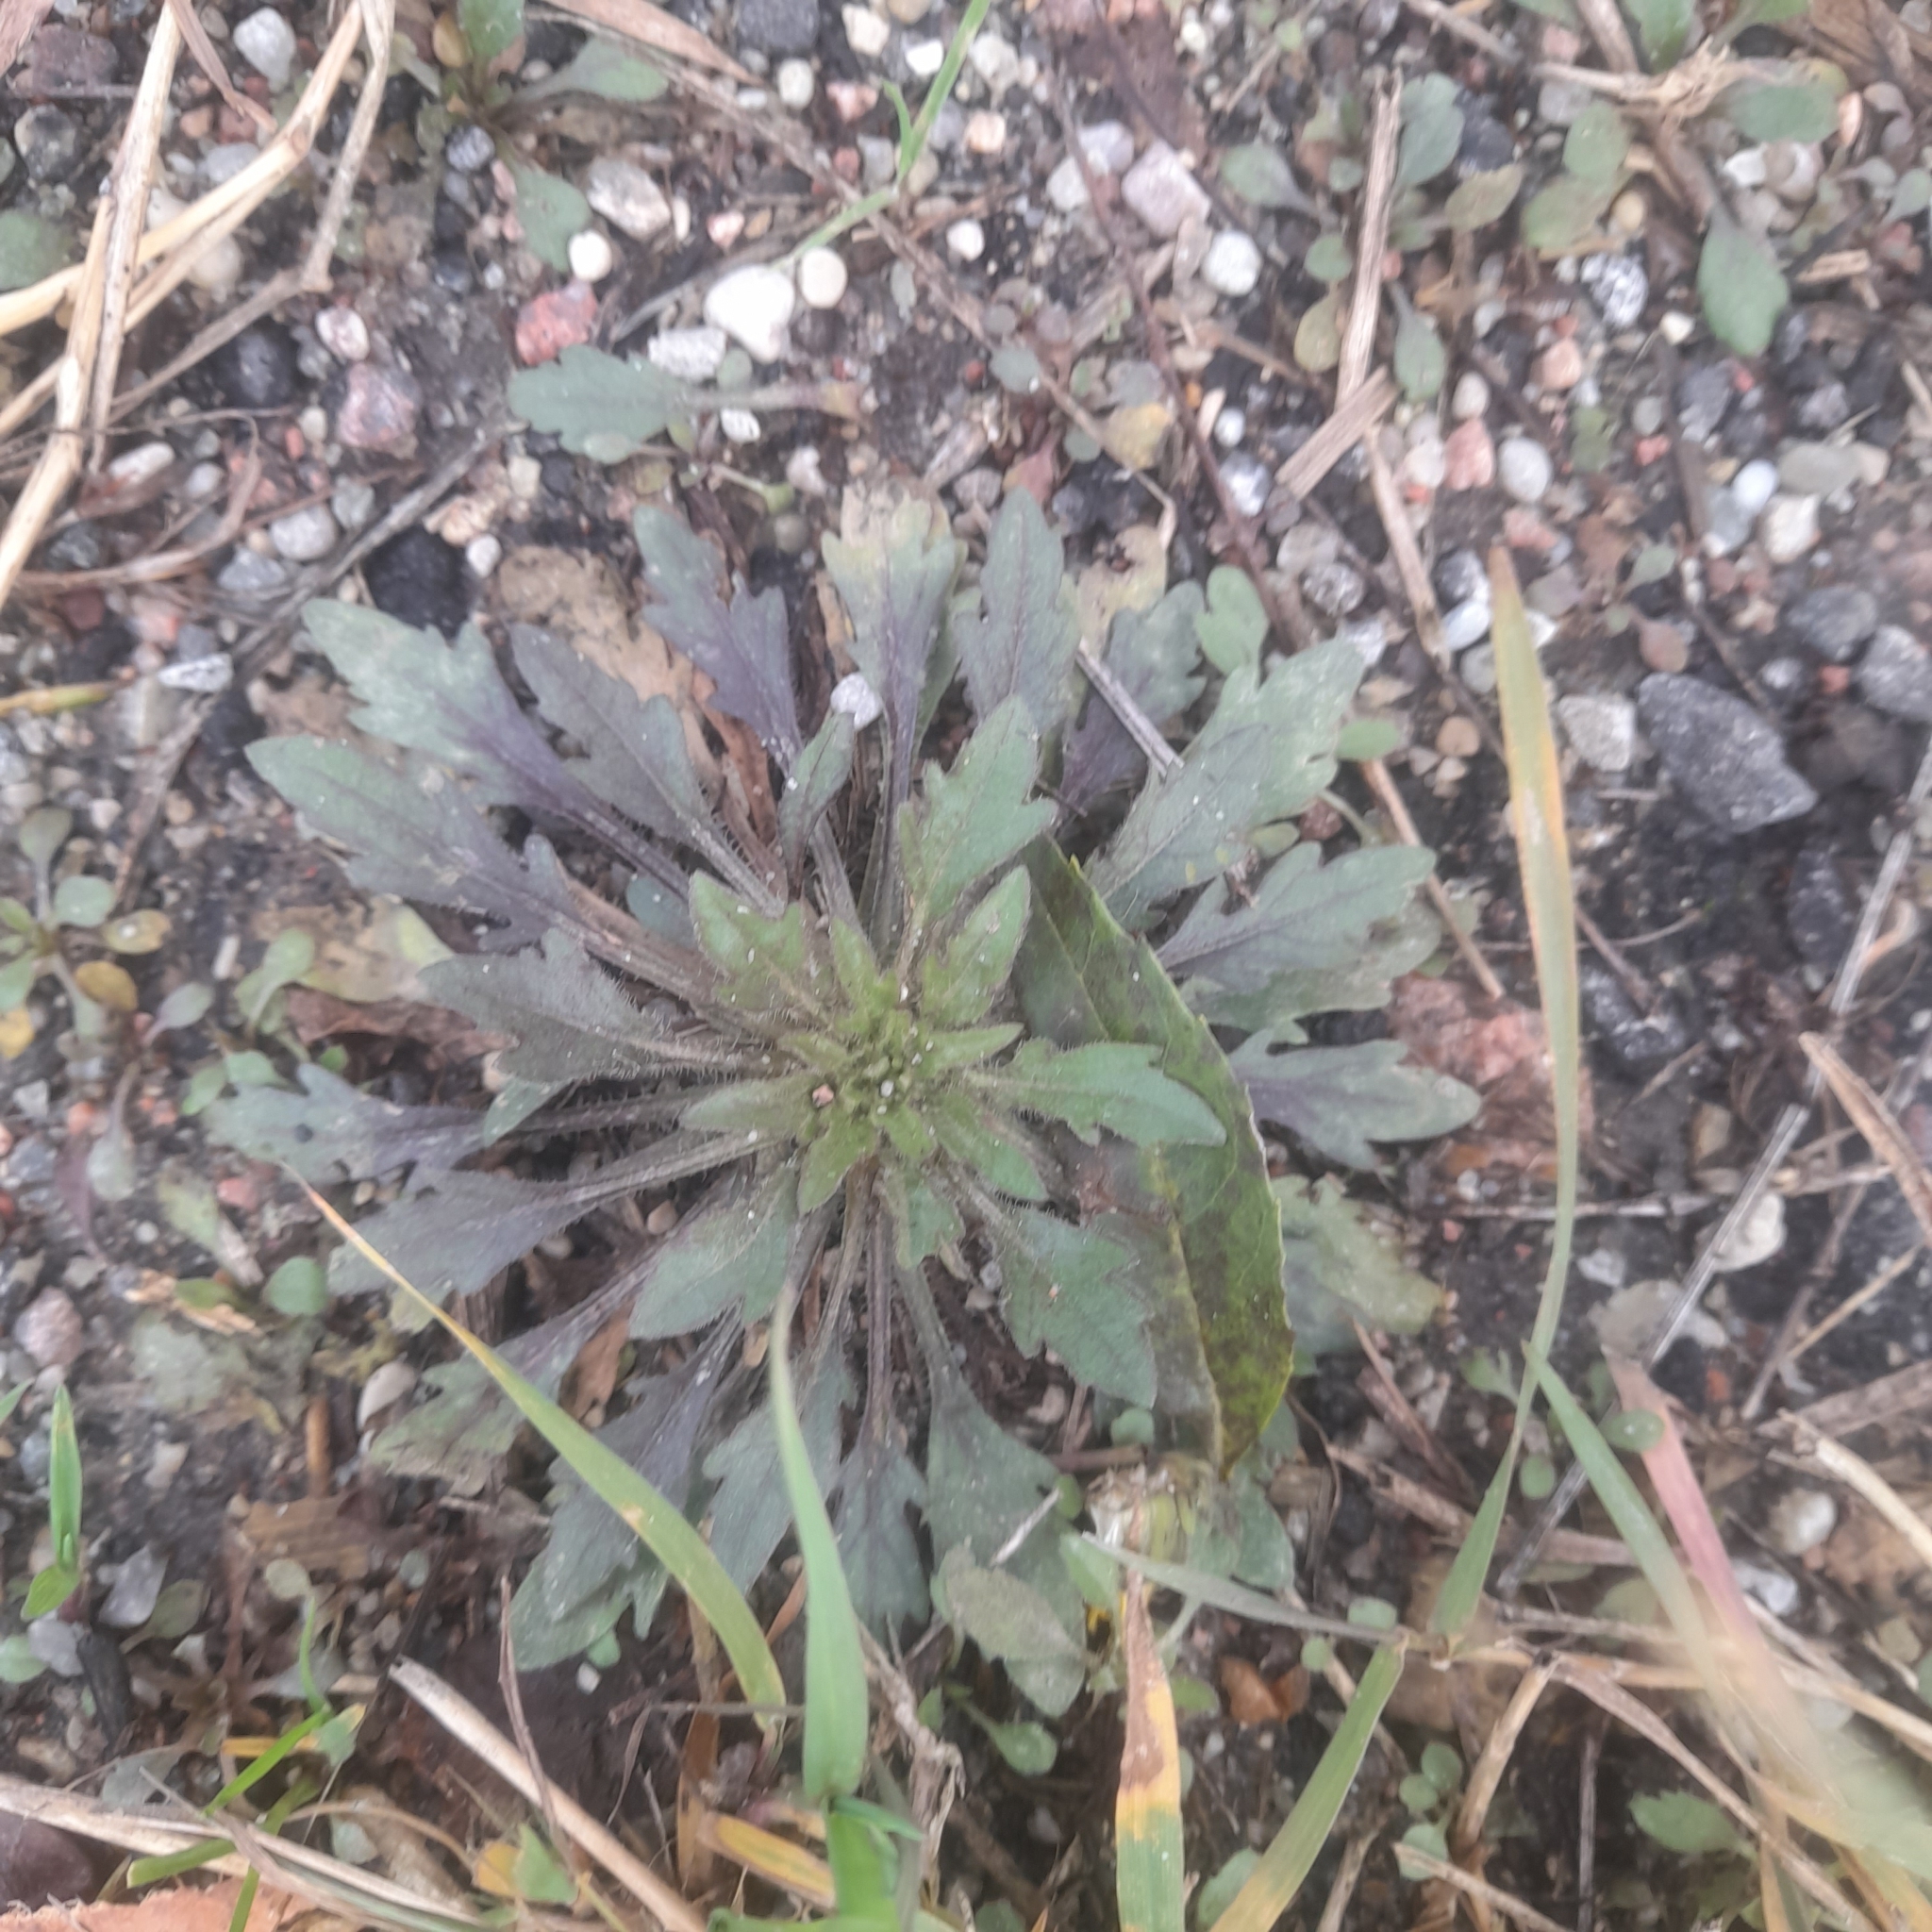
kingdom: Plantae
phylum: Tracheophyta
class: Magnoliopsida
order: Asterales
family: Asteraceae
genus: Erigeron
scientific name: Erigeron canadensis
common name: Canadian fleabane
